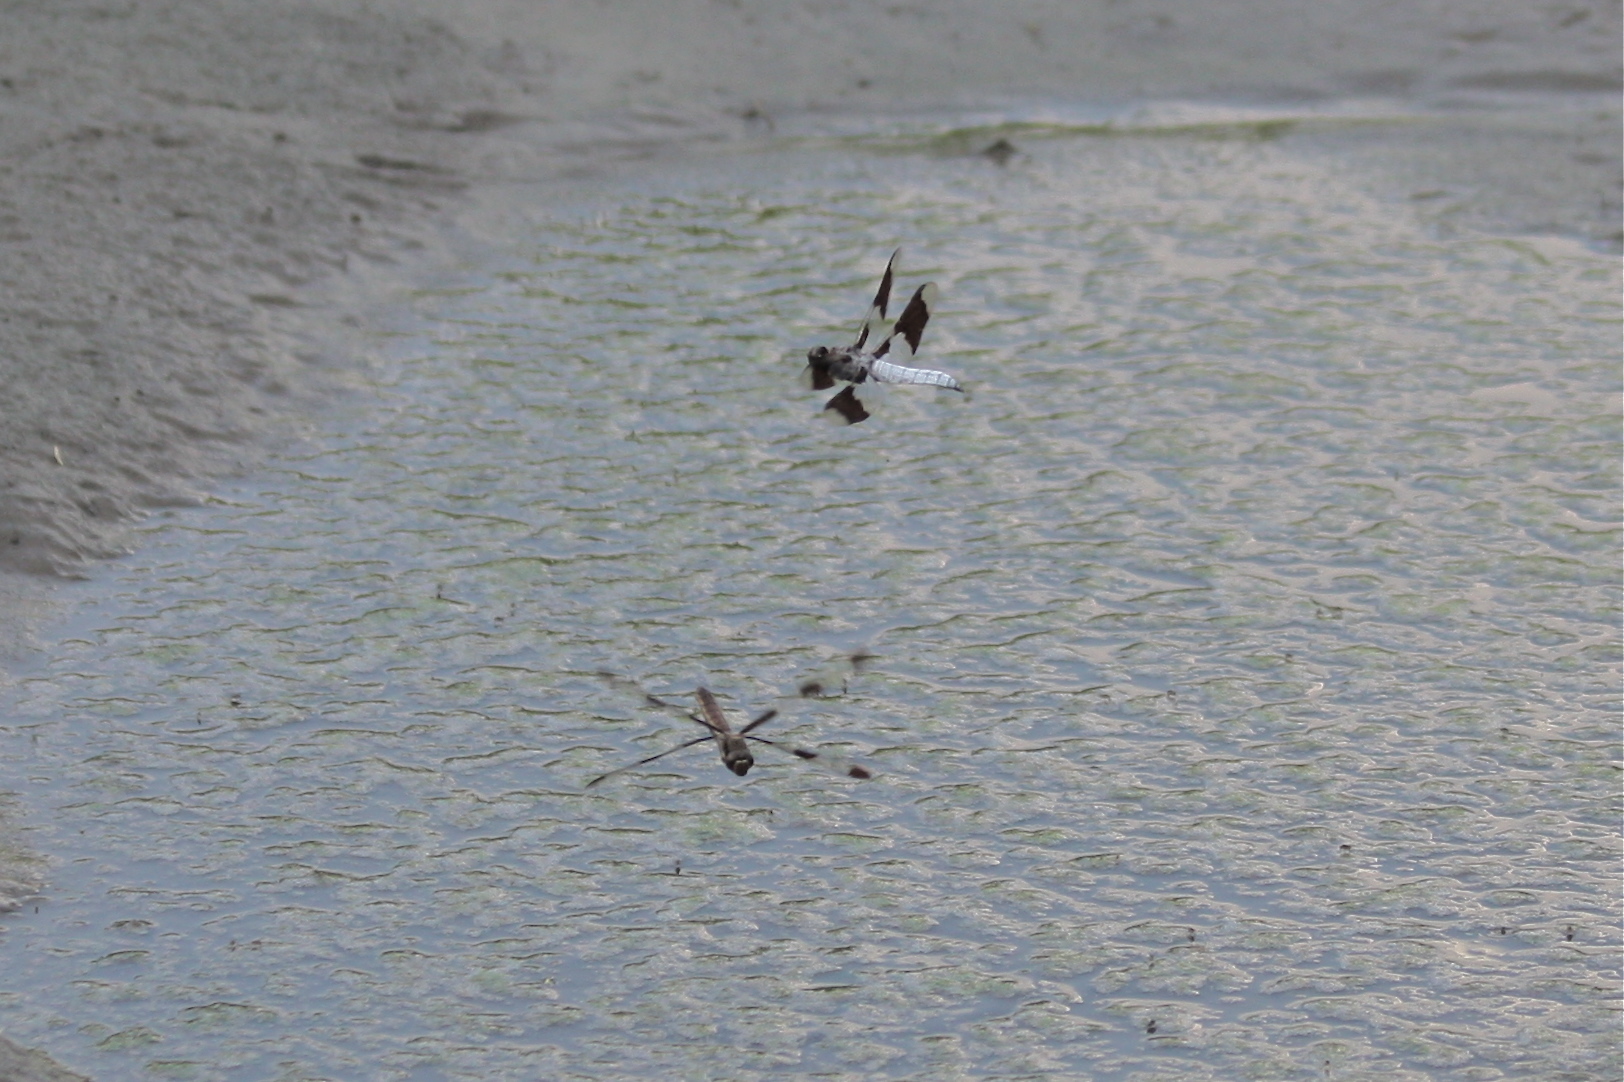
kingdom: Animalia
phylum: Arthropoda
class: Insecta
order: Odonata
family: Libellulidae
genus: Plathemis
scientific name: Plathemis lydia
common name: Common whitetail
